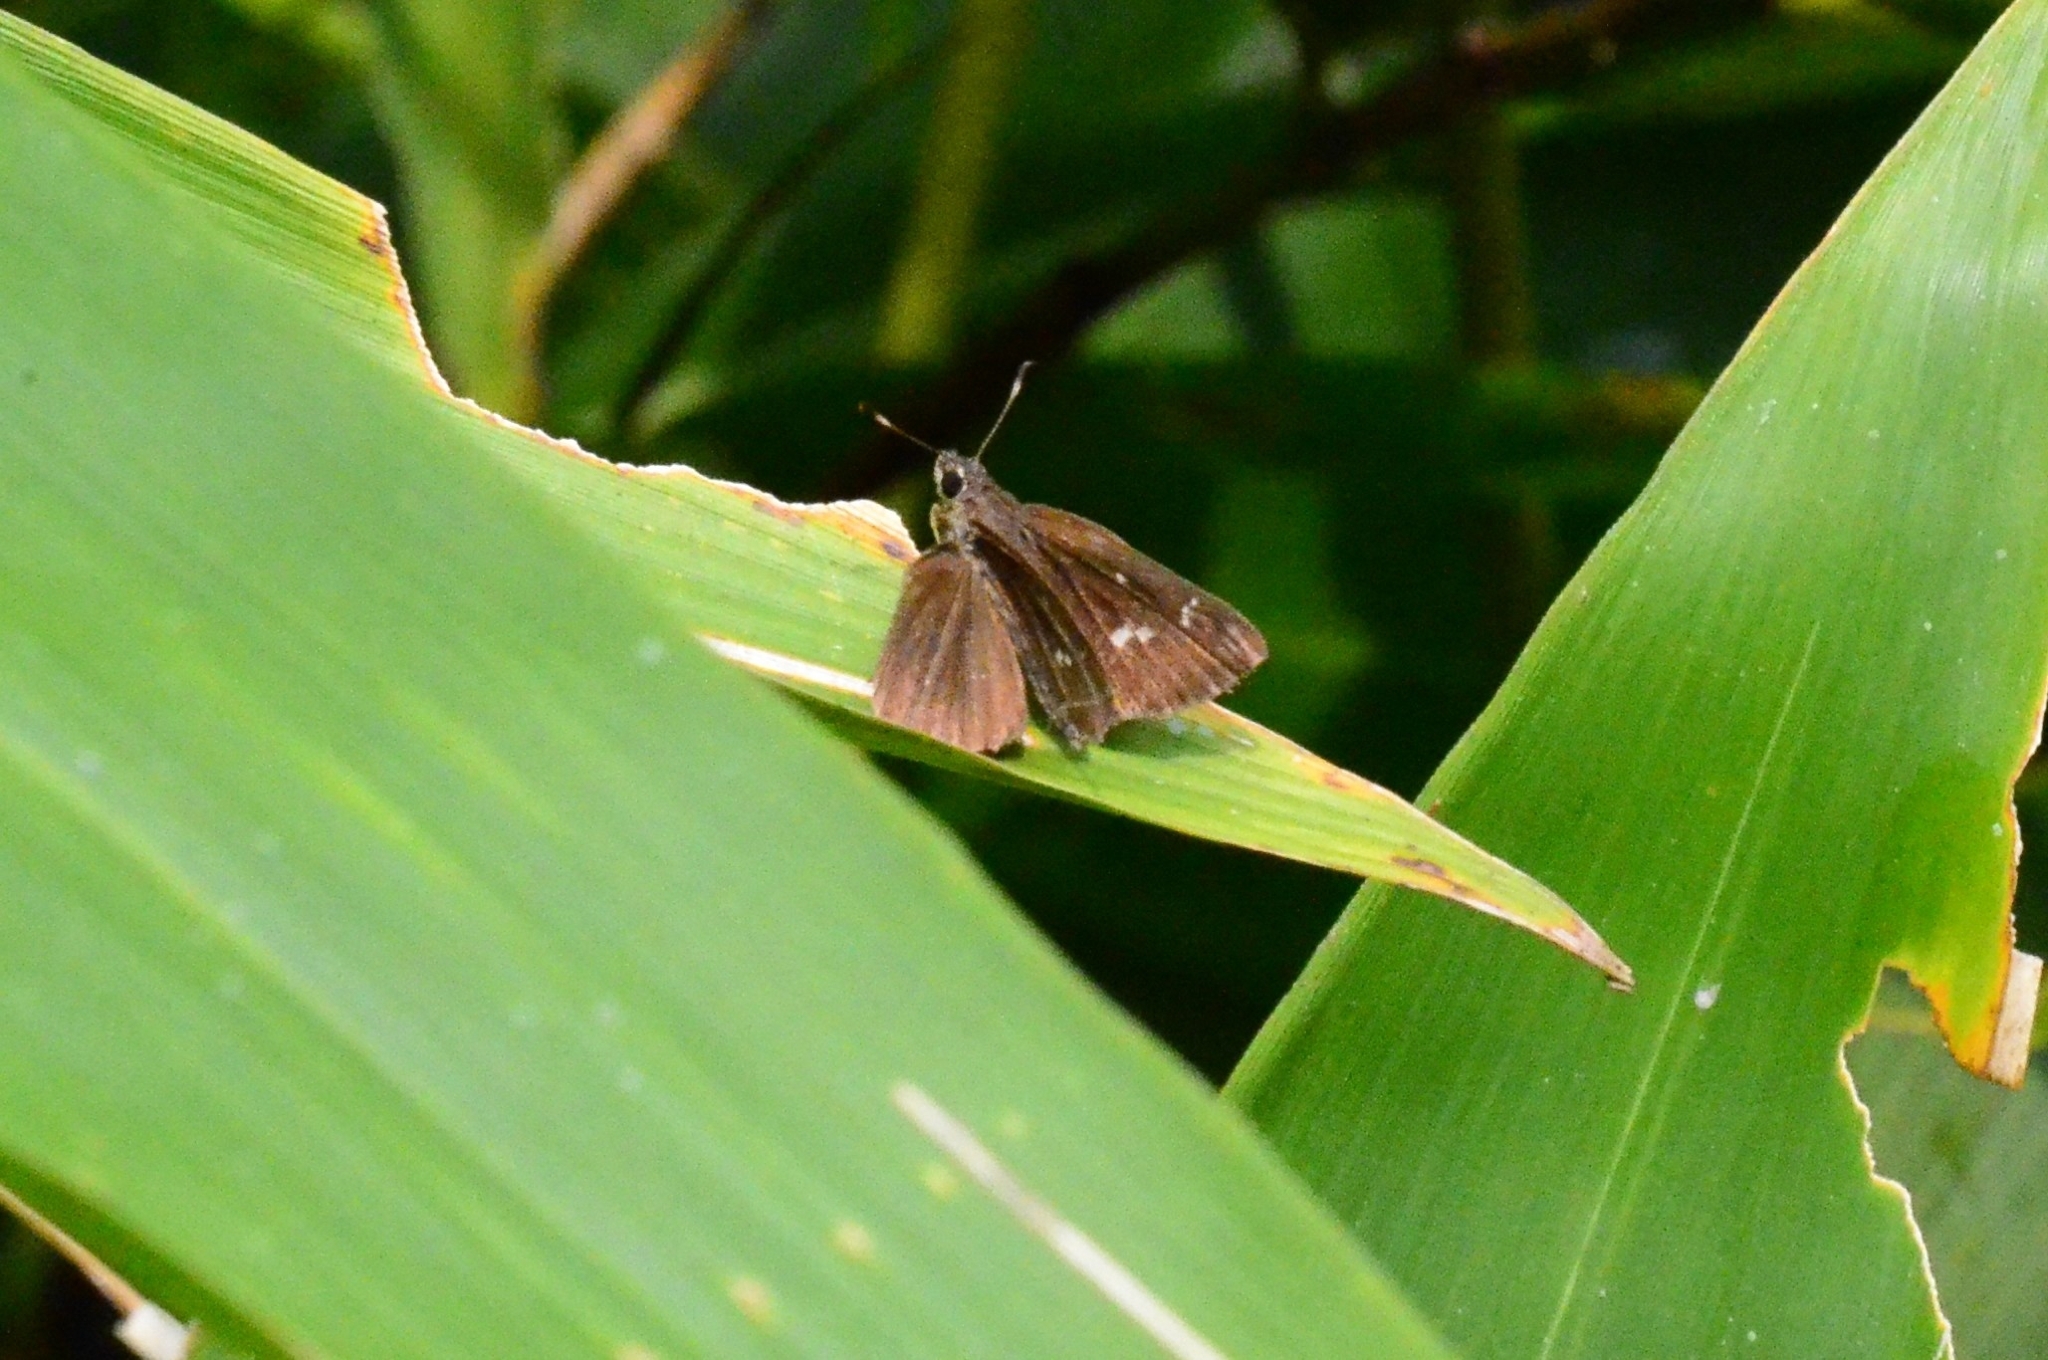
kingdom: Animalia
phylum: Arthropoda
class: Insecta
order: Lepidoptera
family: Hesperiidae
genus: Arnetta
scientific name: Arnetta vindhiana
